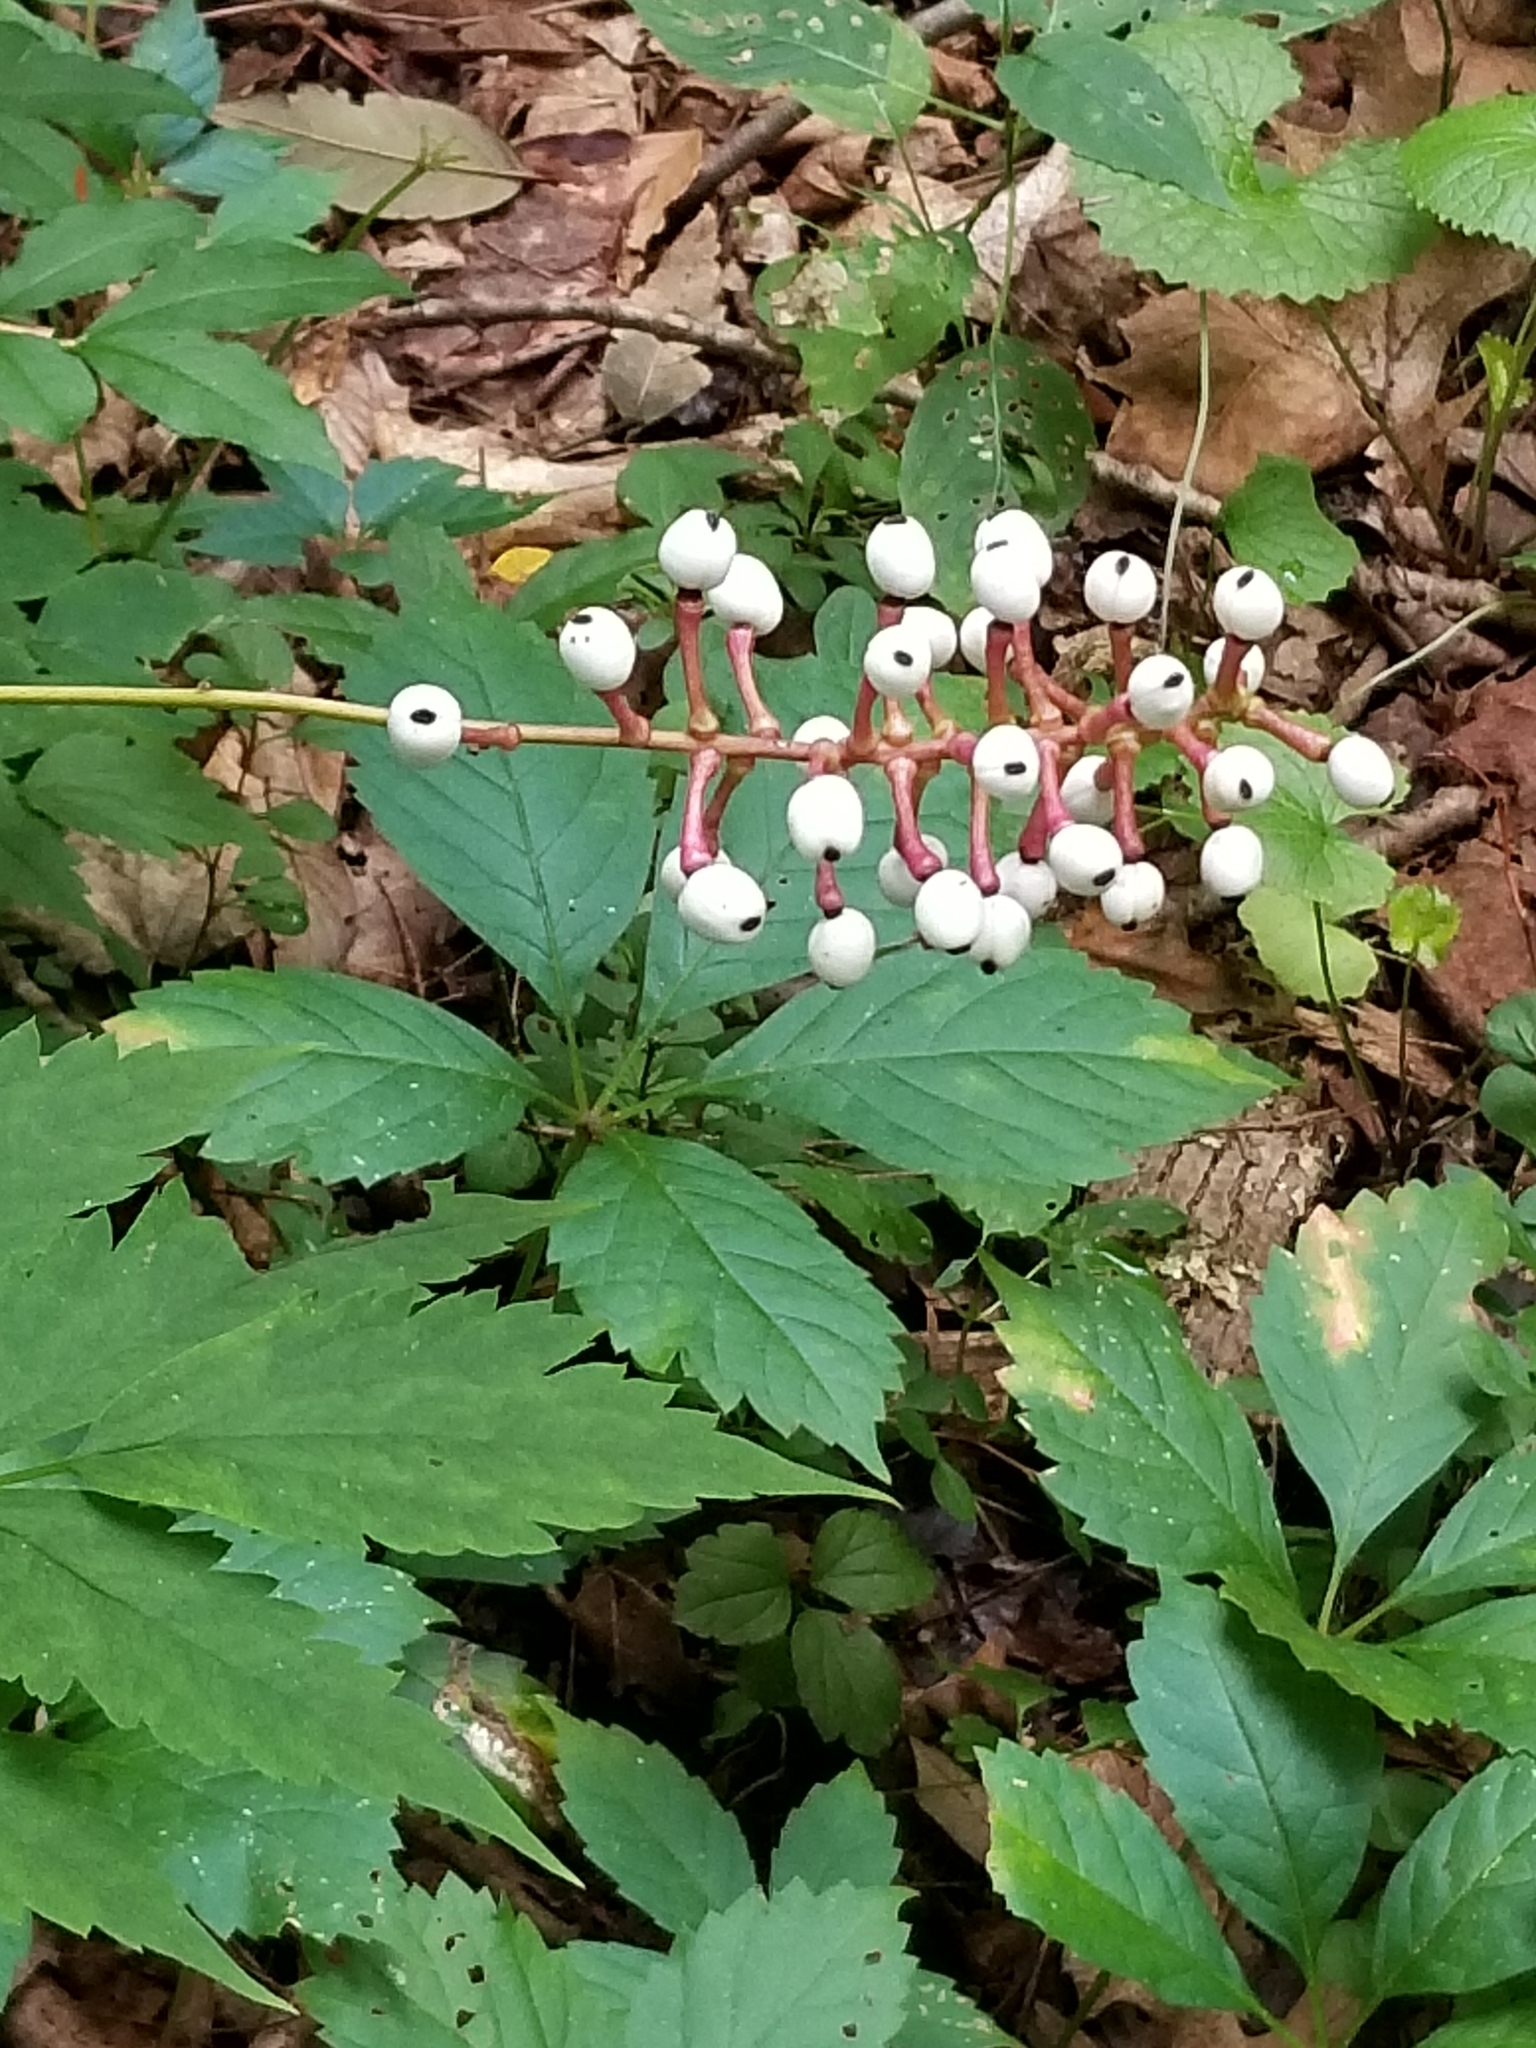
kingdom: Plantae
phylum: Tracheophyta
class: Magnoliopsida
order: Ranunculales
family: Ranunculaceae
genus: Actaea
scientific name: Actaea pachypoda
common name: Doll's-eyes
